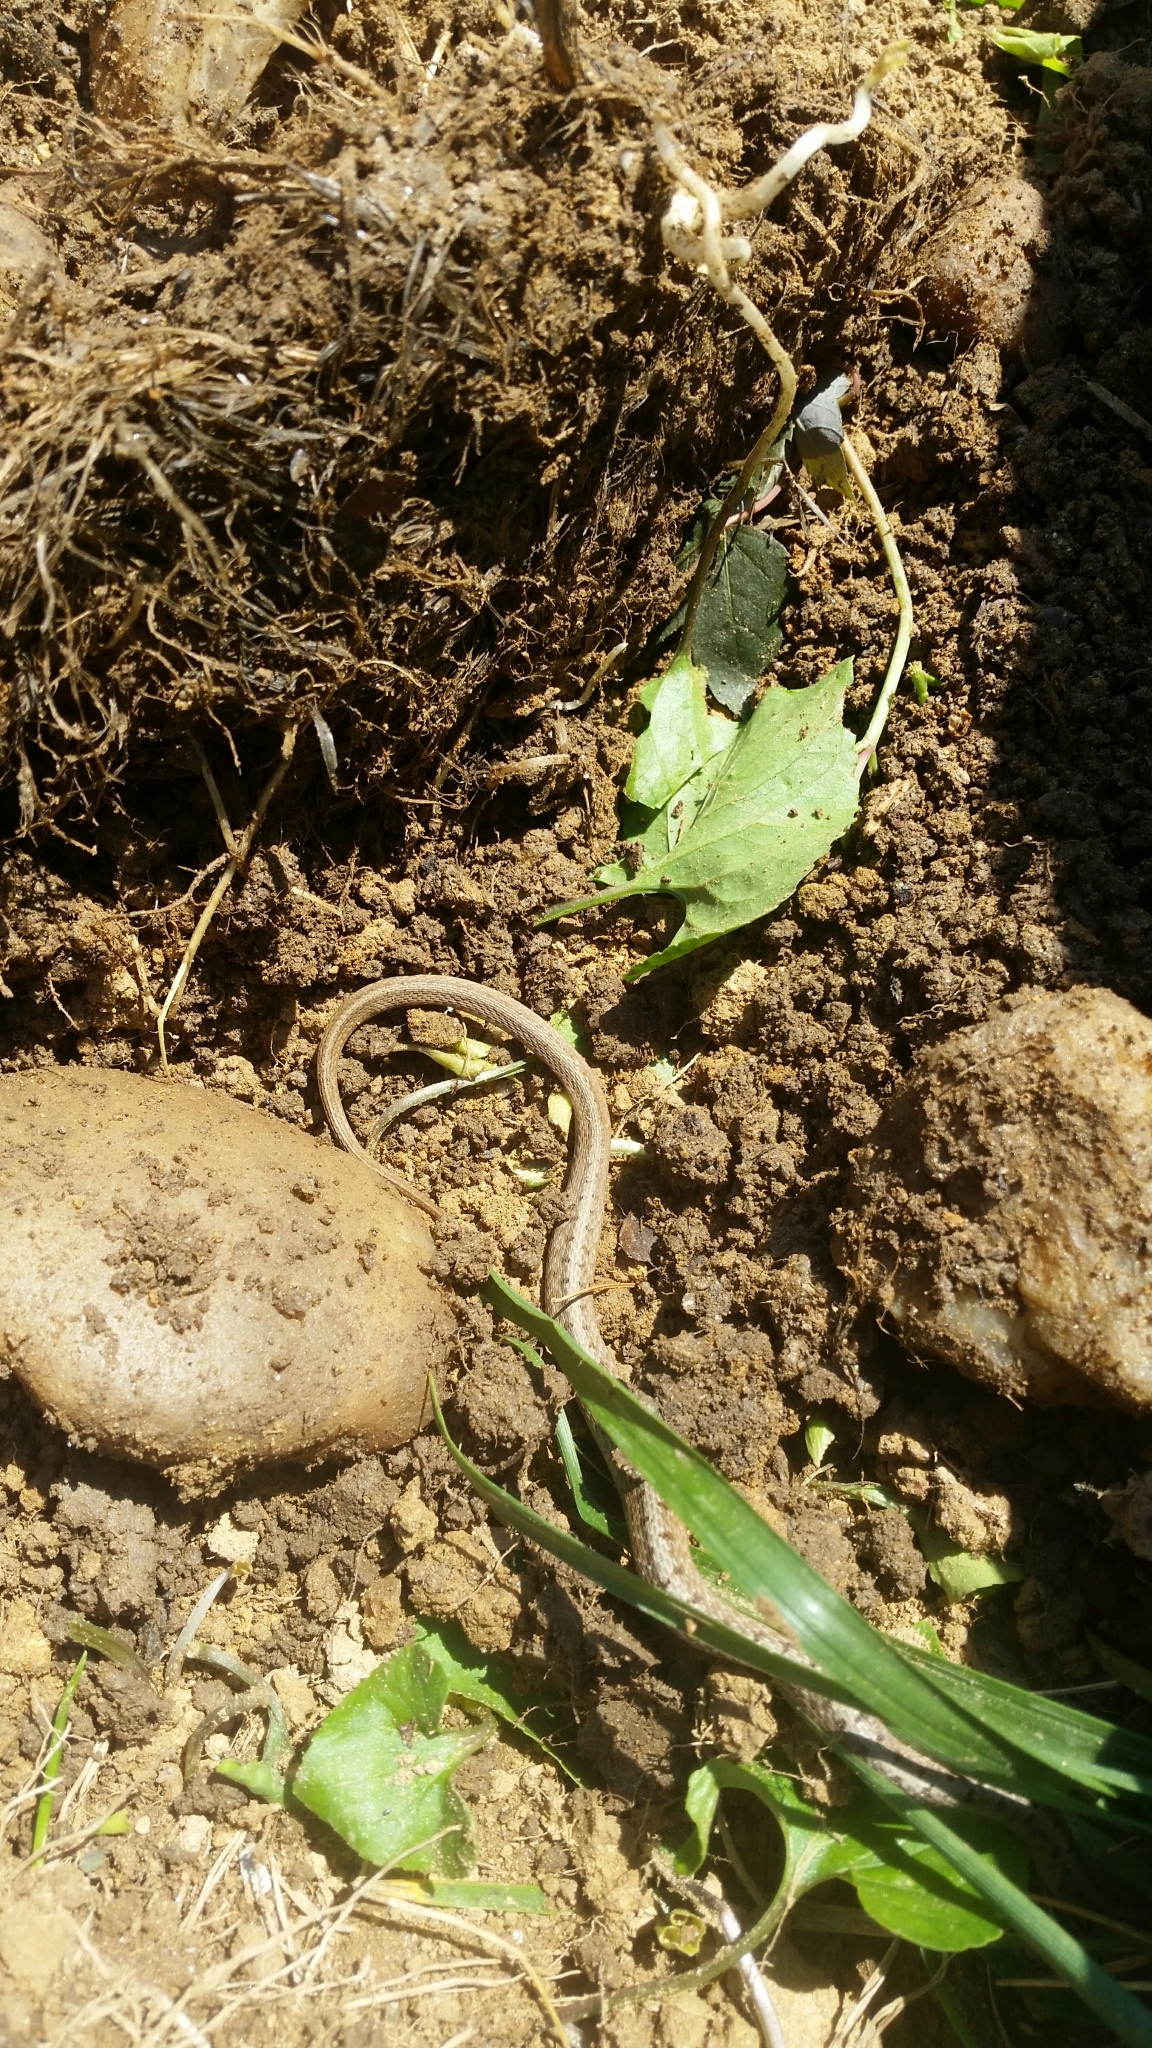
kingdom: Animalia
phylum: Chordata
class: Squamata
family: Colubridae
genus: Storeria
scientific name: Storeria dekayi
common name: (dekay’s) brown snake
